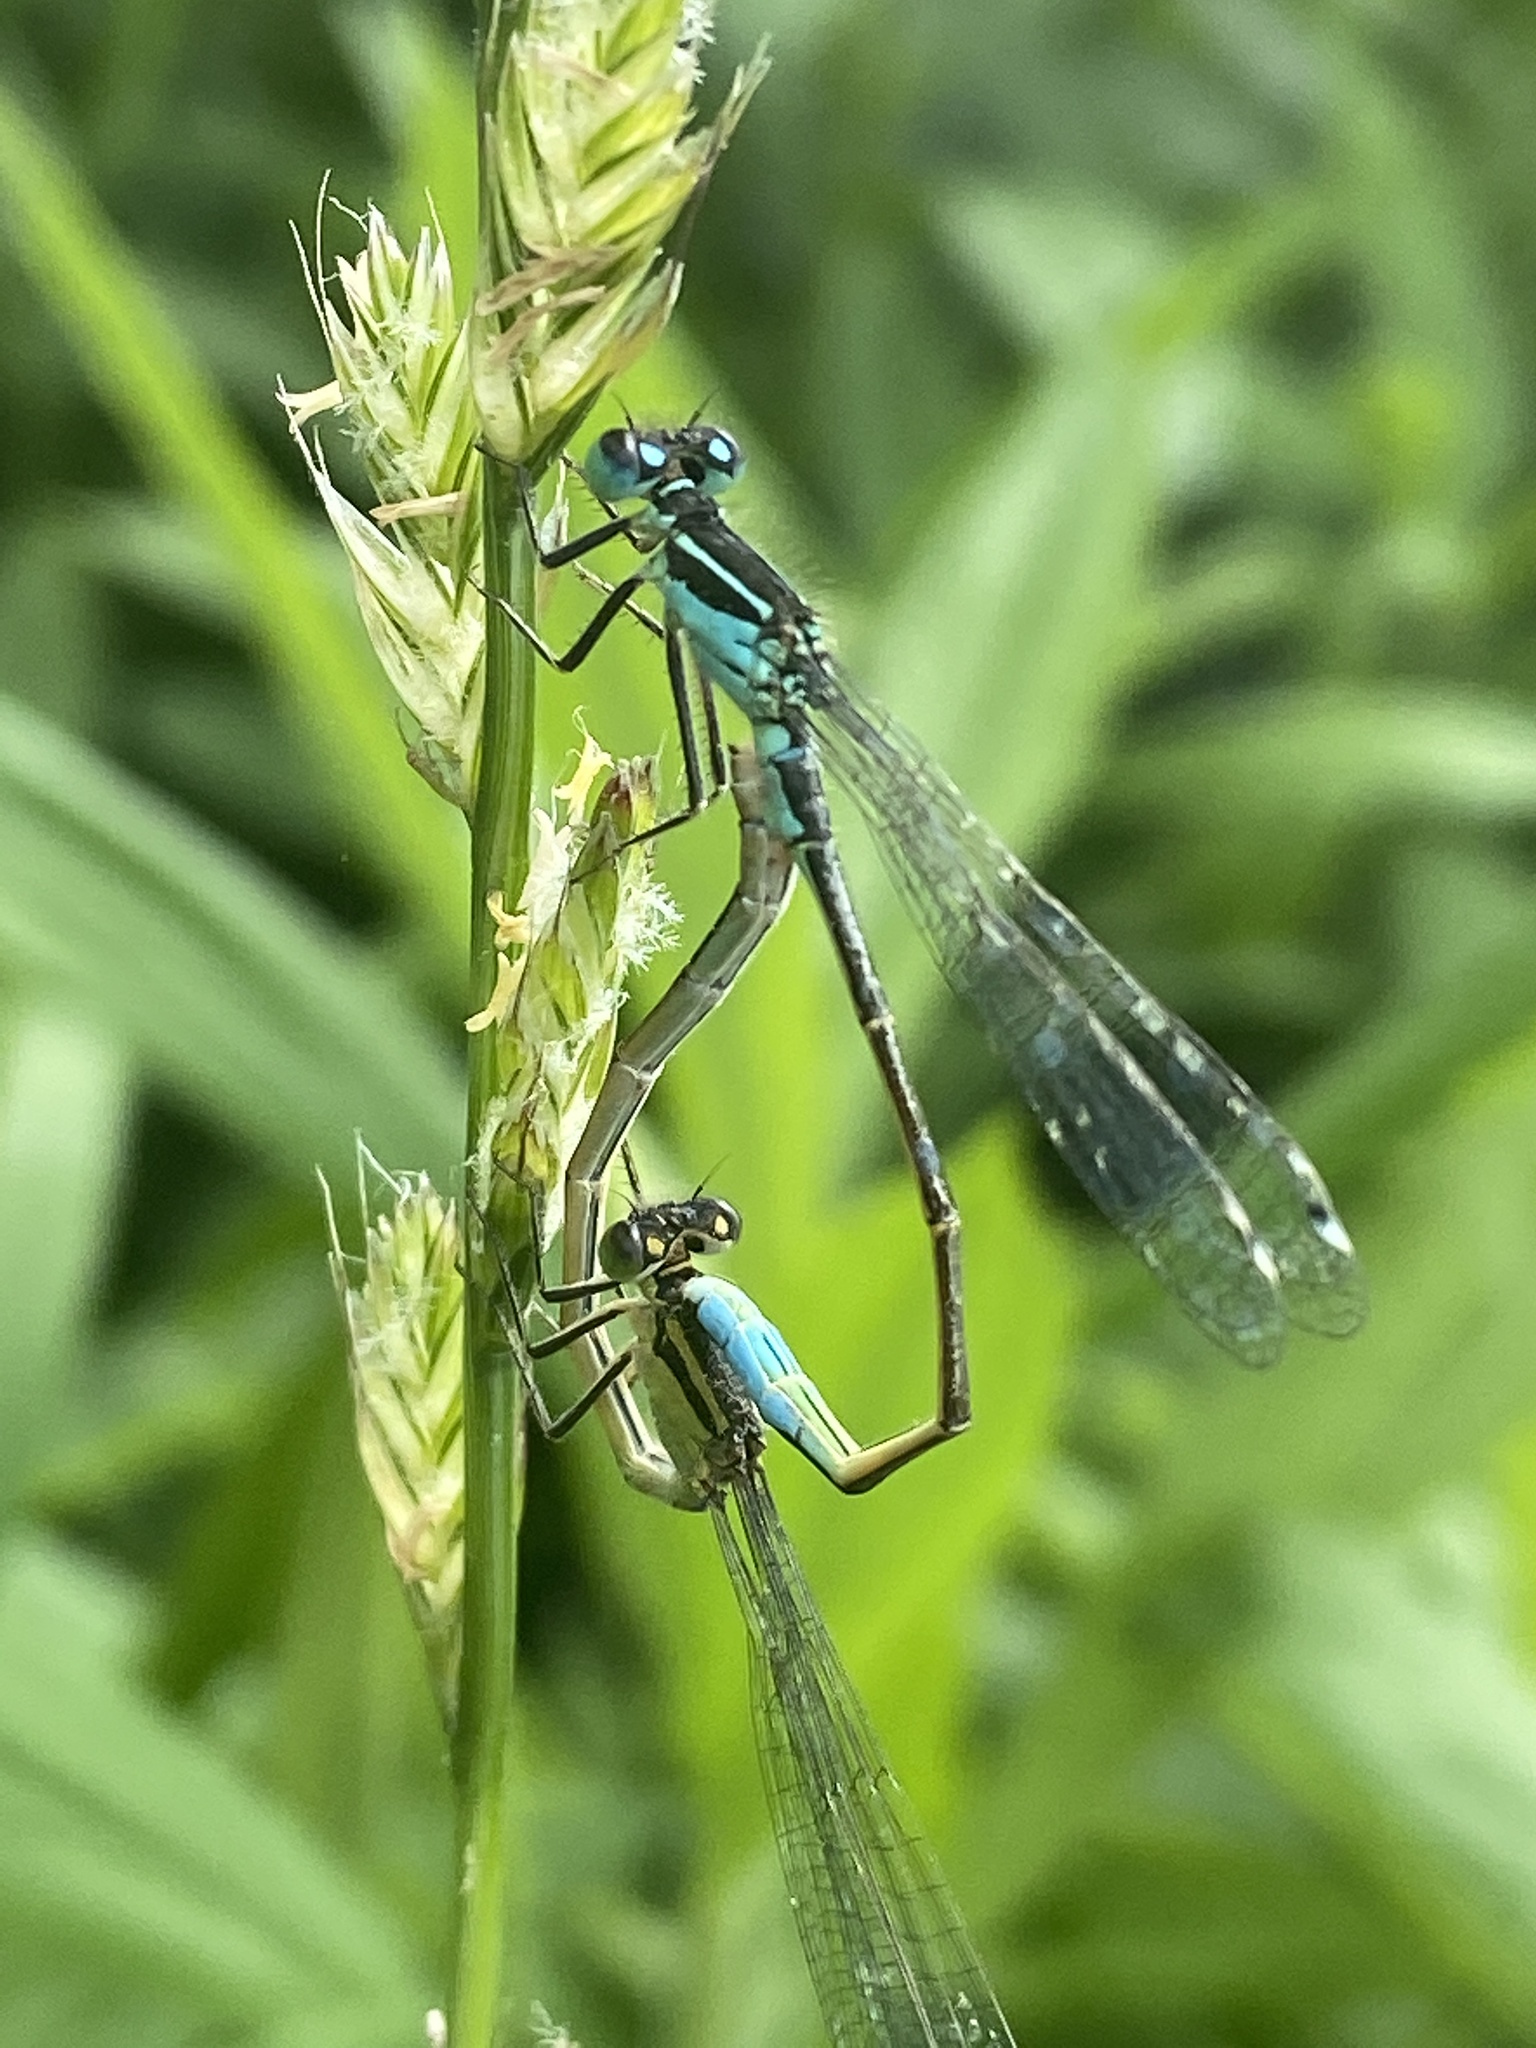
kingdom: Animalia
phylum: Arthropoda
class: Insecta
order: Odonata
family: Coenagrionidae
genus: Ischnura
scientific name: Ischnura elegans
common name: Blue-tailed damselfly
